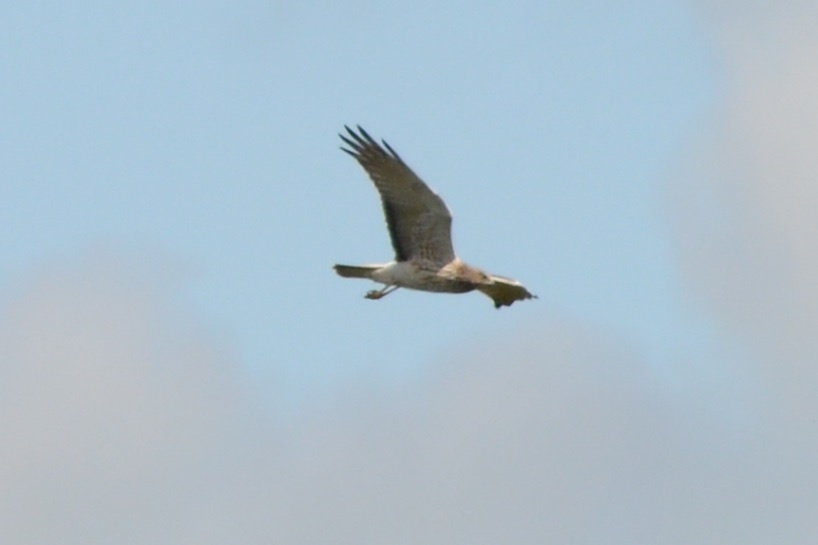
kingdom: Animalia
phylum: Chordata
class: Aves
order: Accipitriformes
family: Accipitridae
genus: Circus
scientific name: Circus approximans
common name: Swamp harrier
